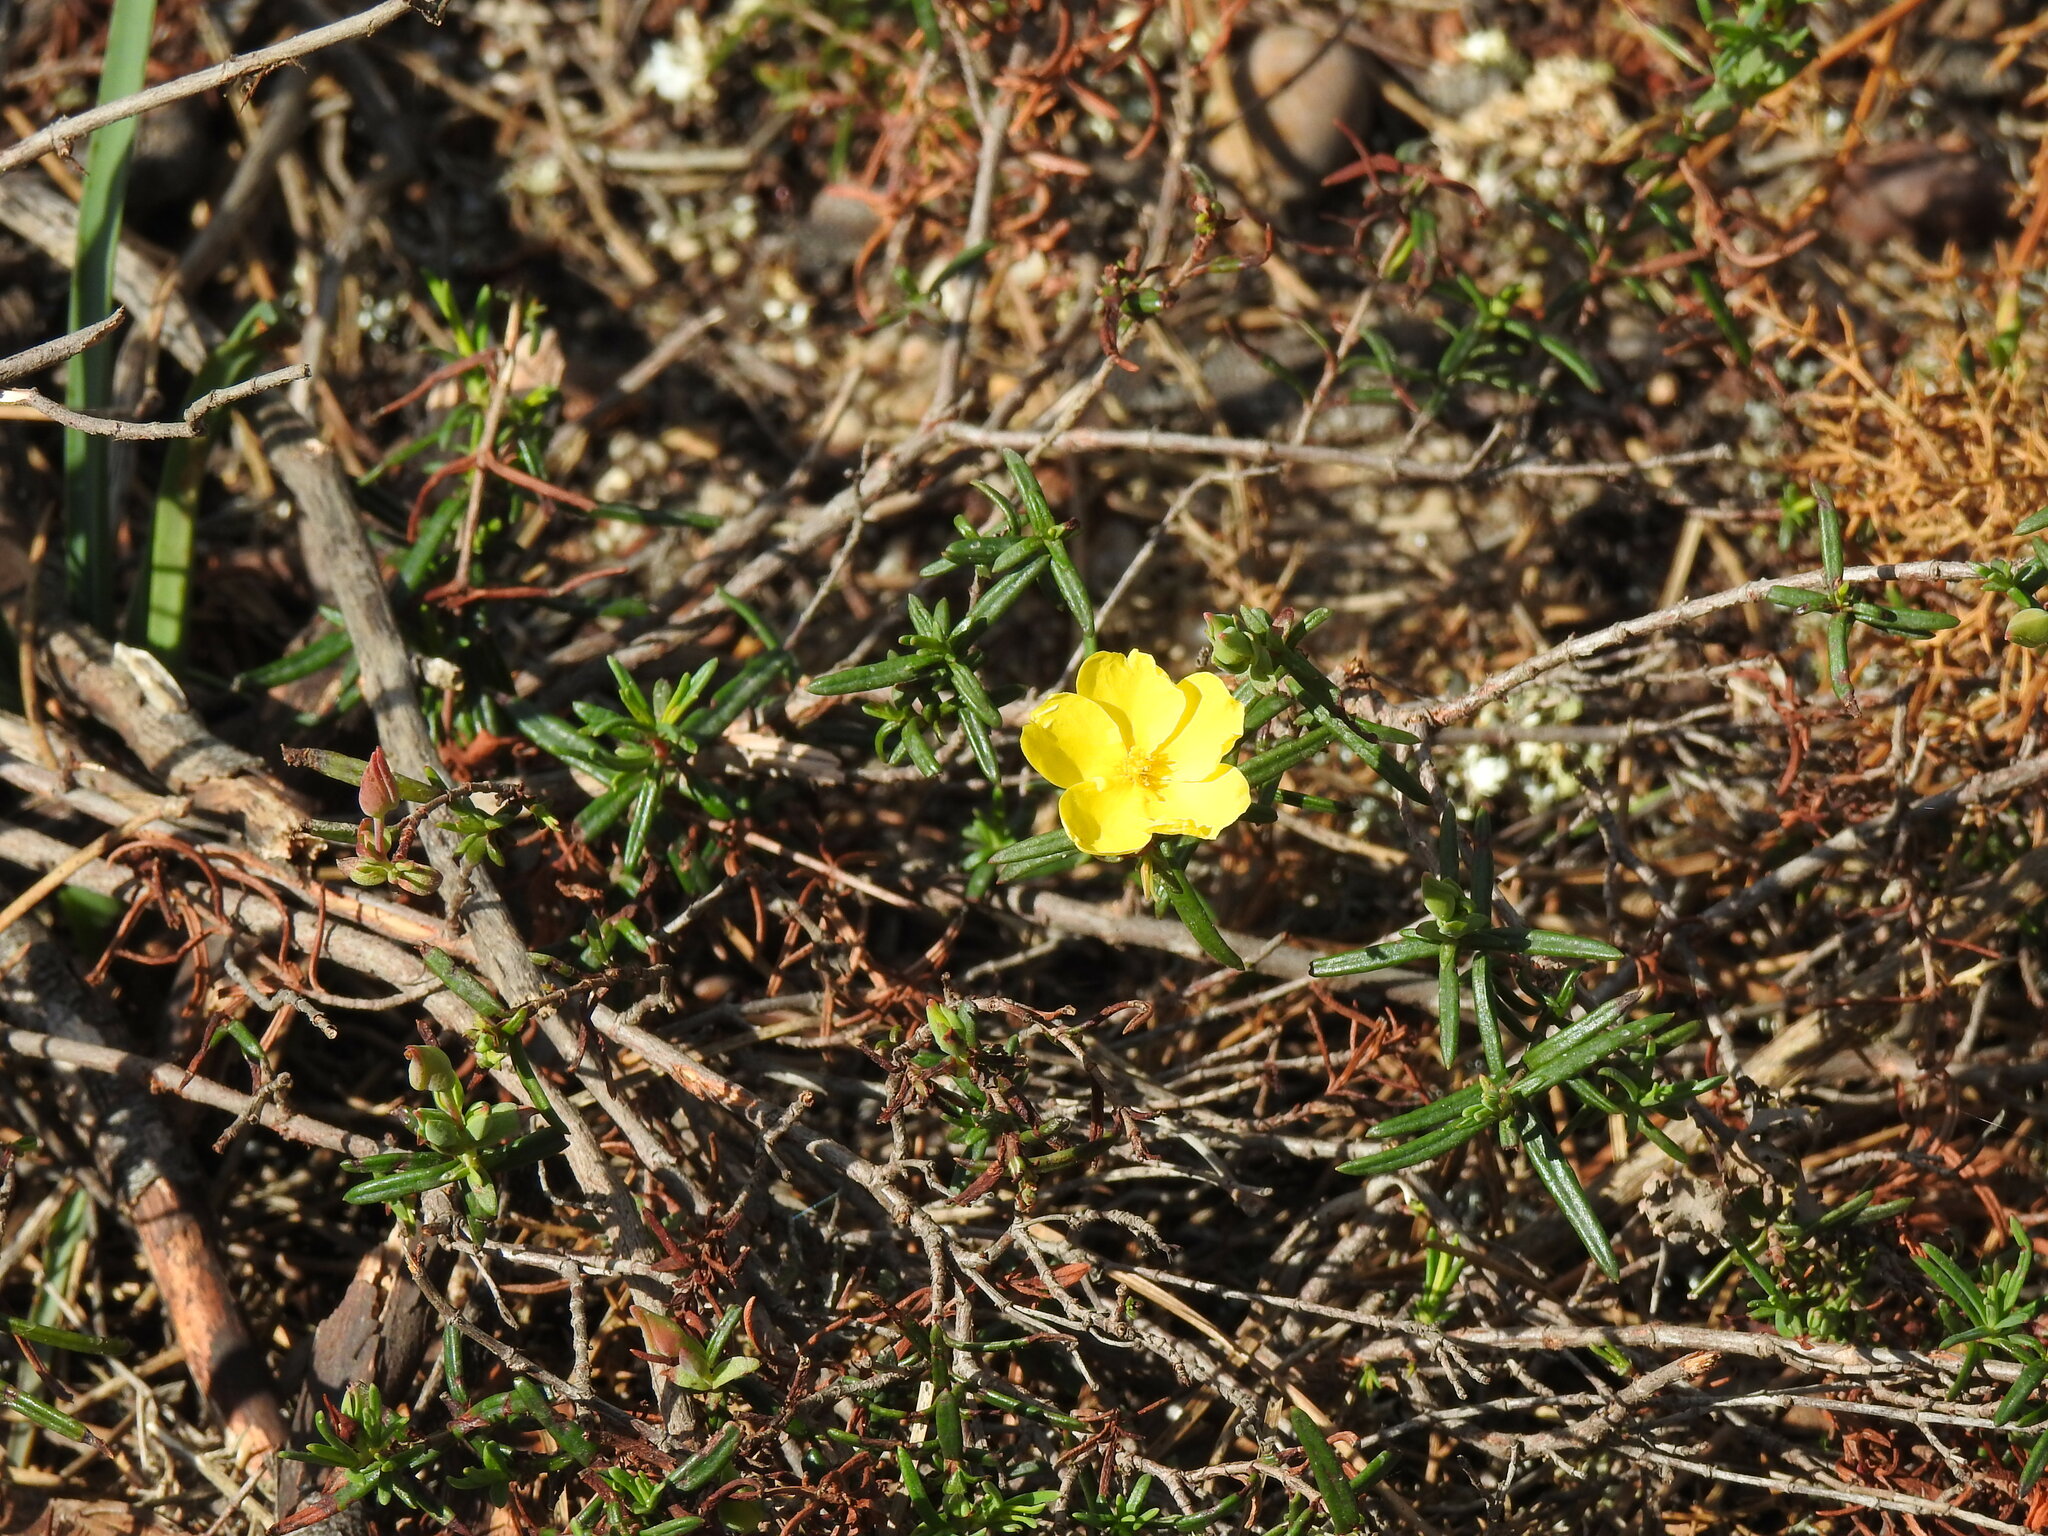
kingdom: Plantae
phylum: Tracheophyta
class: Magnoliopsida
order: Malvales
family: Cistaceae
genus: Halimium
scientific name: Halimium calycinum
